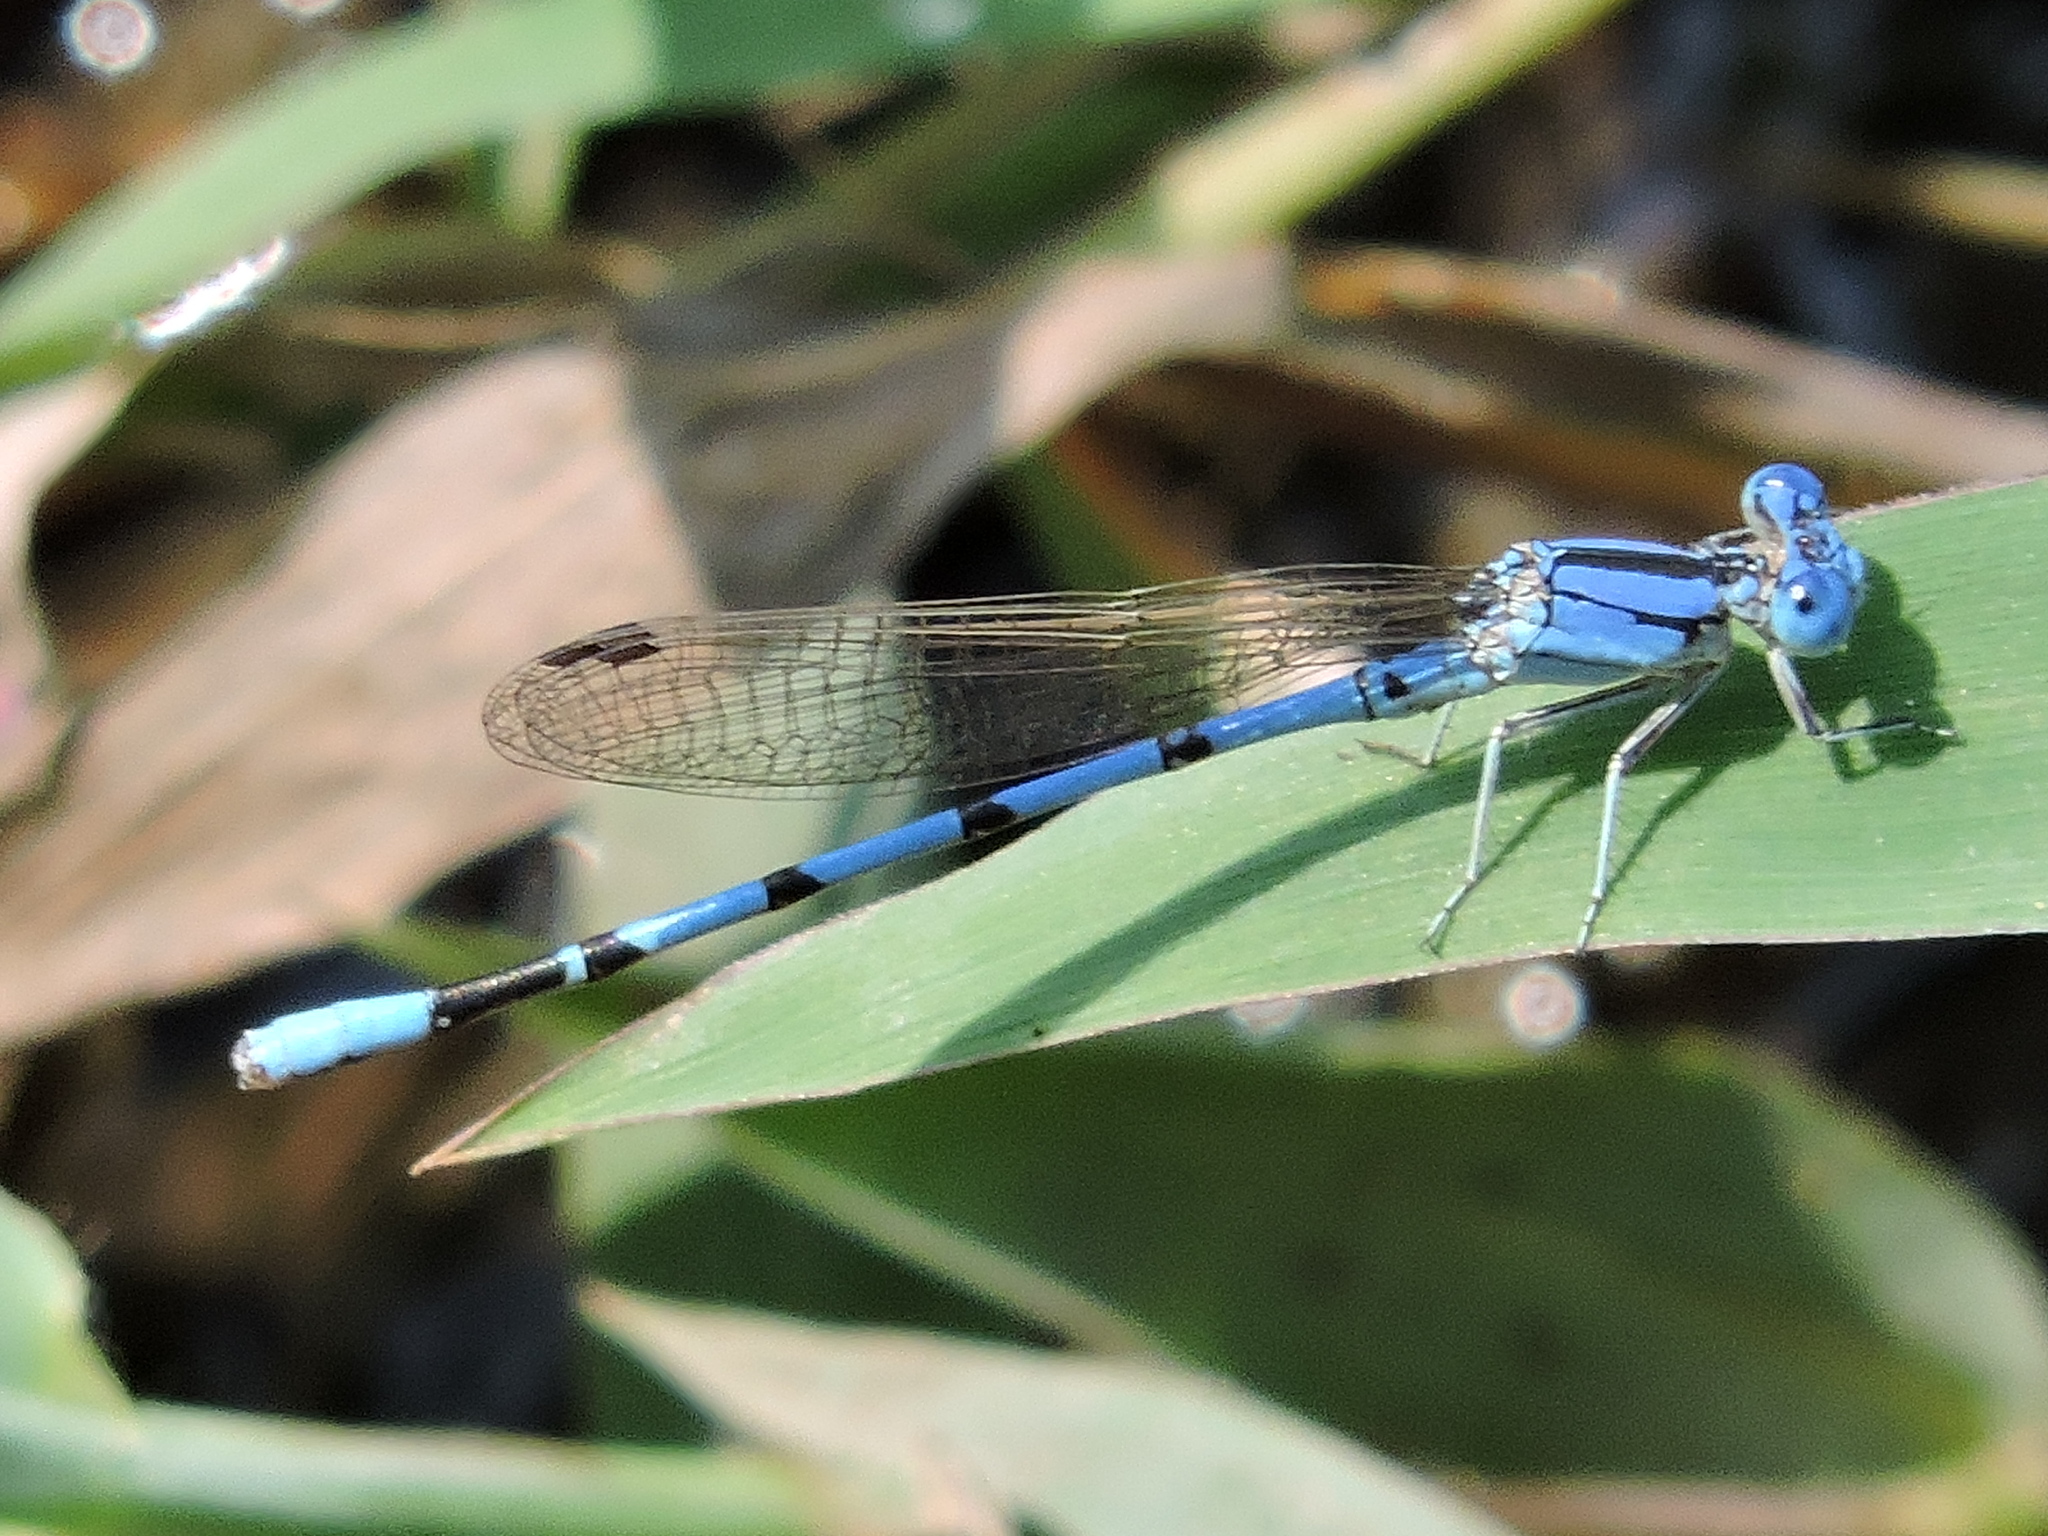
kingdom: Animalia
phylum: Arthropoda
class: Insecta
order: Odonata
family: Coenagrionidae
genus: Argia
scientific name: Argia nahuana
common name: Aztec dancer
